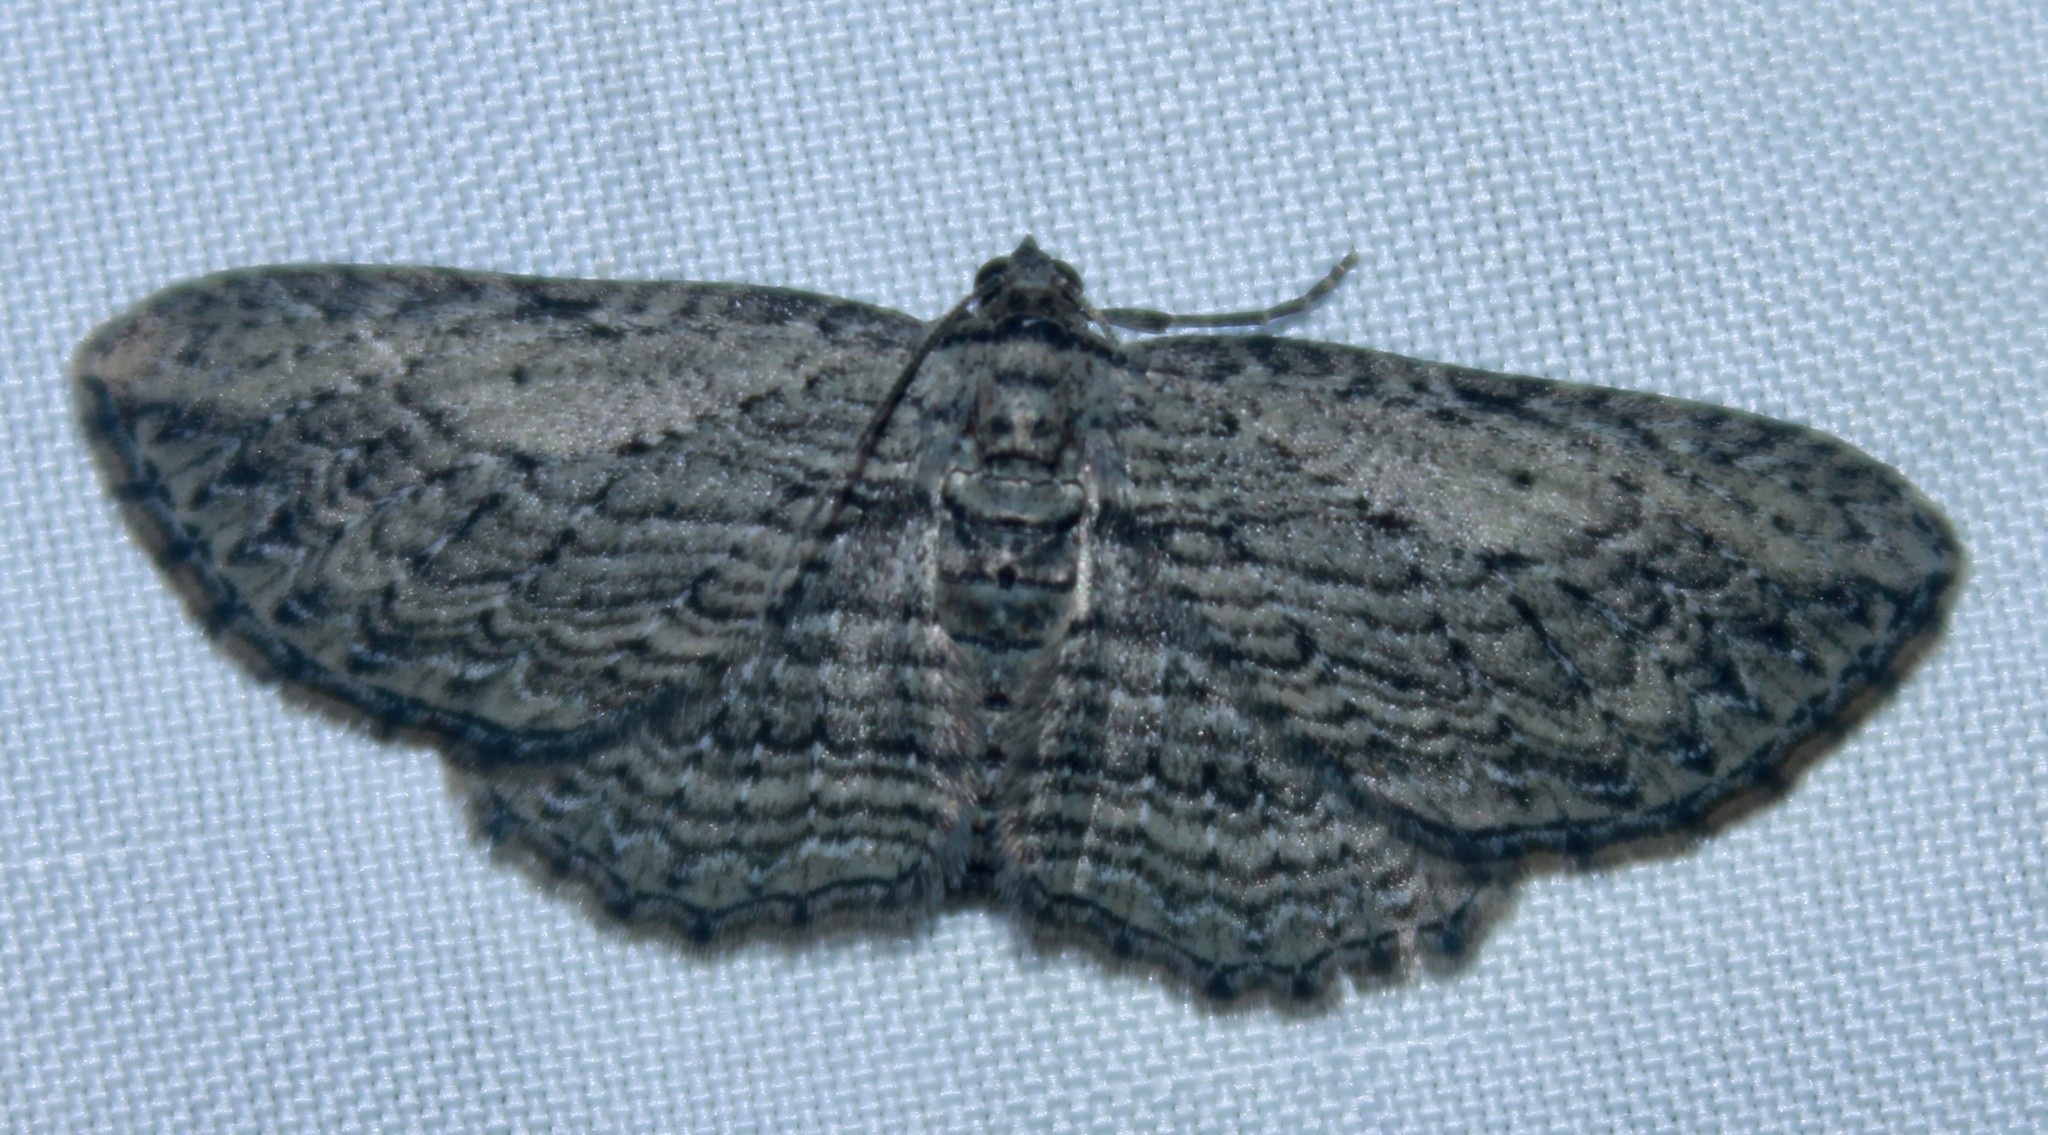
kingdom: Animalia
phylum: Arthropoda
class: Insecta
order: Lepidoptera
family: Geometridae
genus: Horisme
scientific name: Horisme intestinata
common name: Brown bark carpet
